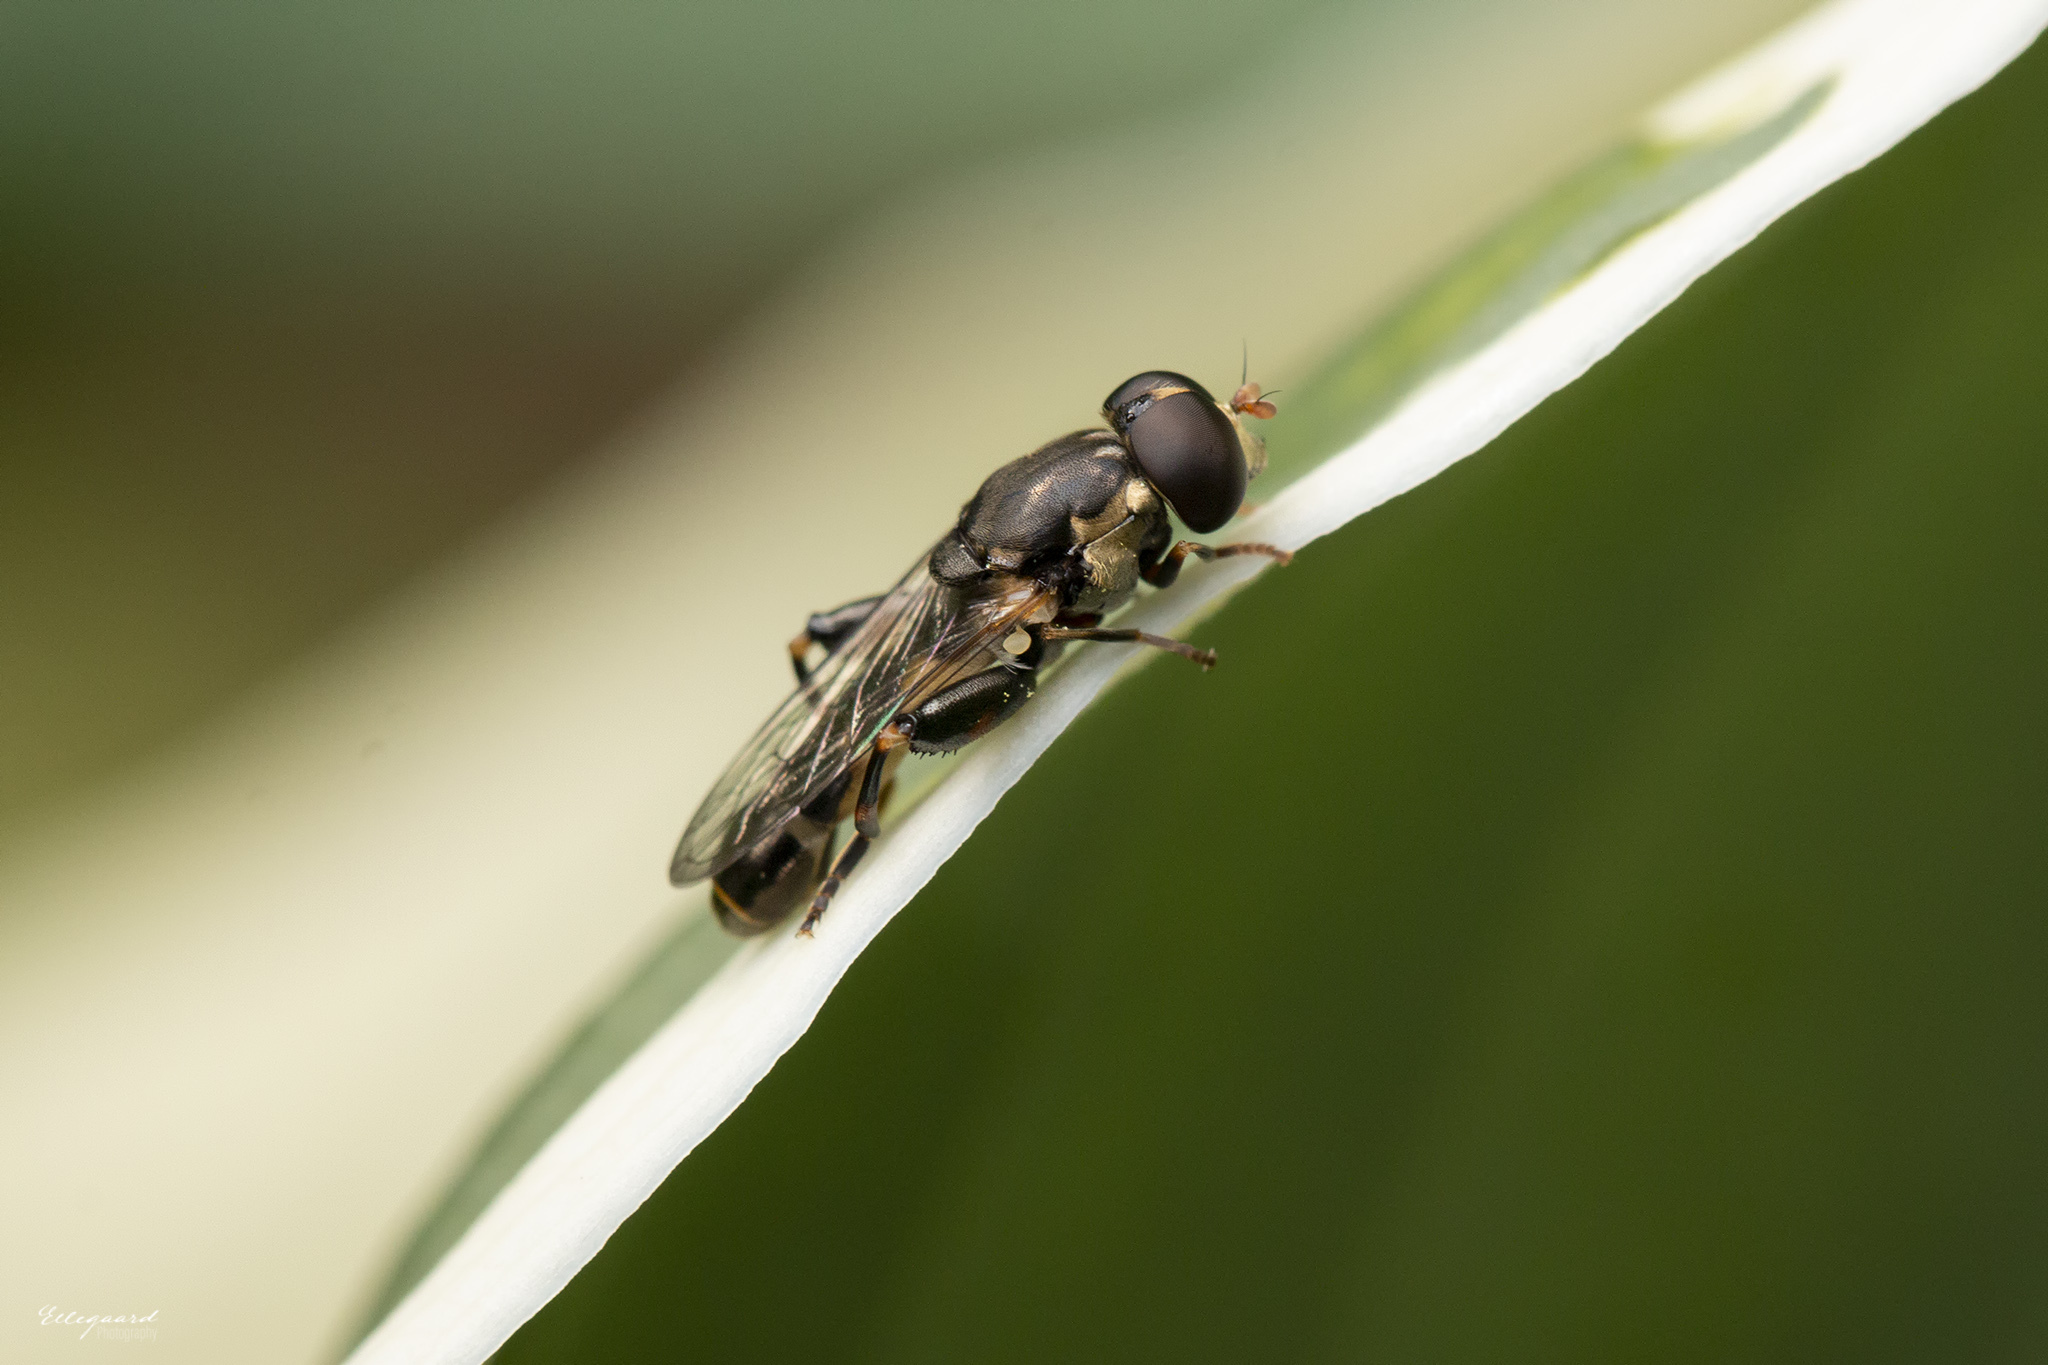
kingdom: Animalia
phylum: Arthropoda
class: Insecta
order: Diptera
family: Syrphidae
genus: Syritta
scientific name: Syritta pipiens
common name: Hover fly
